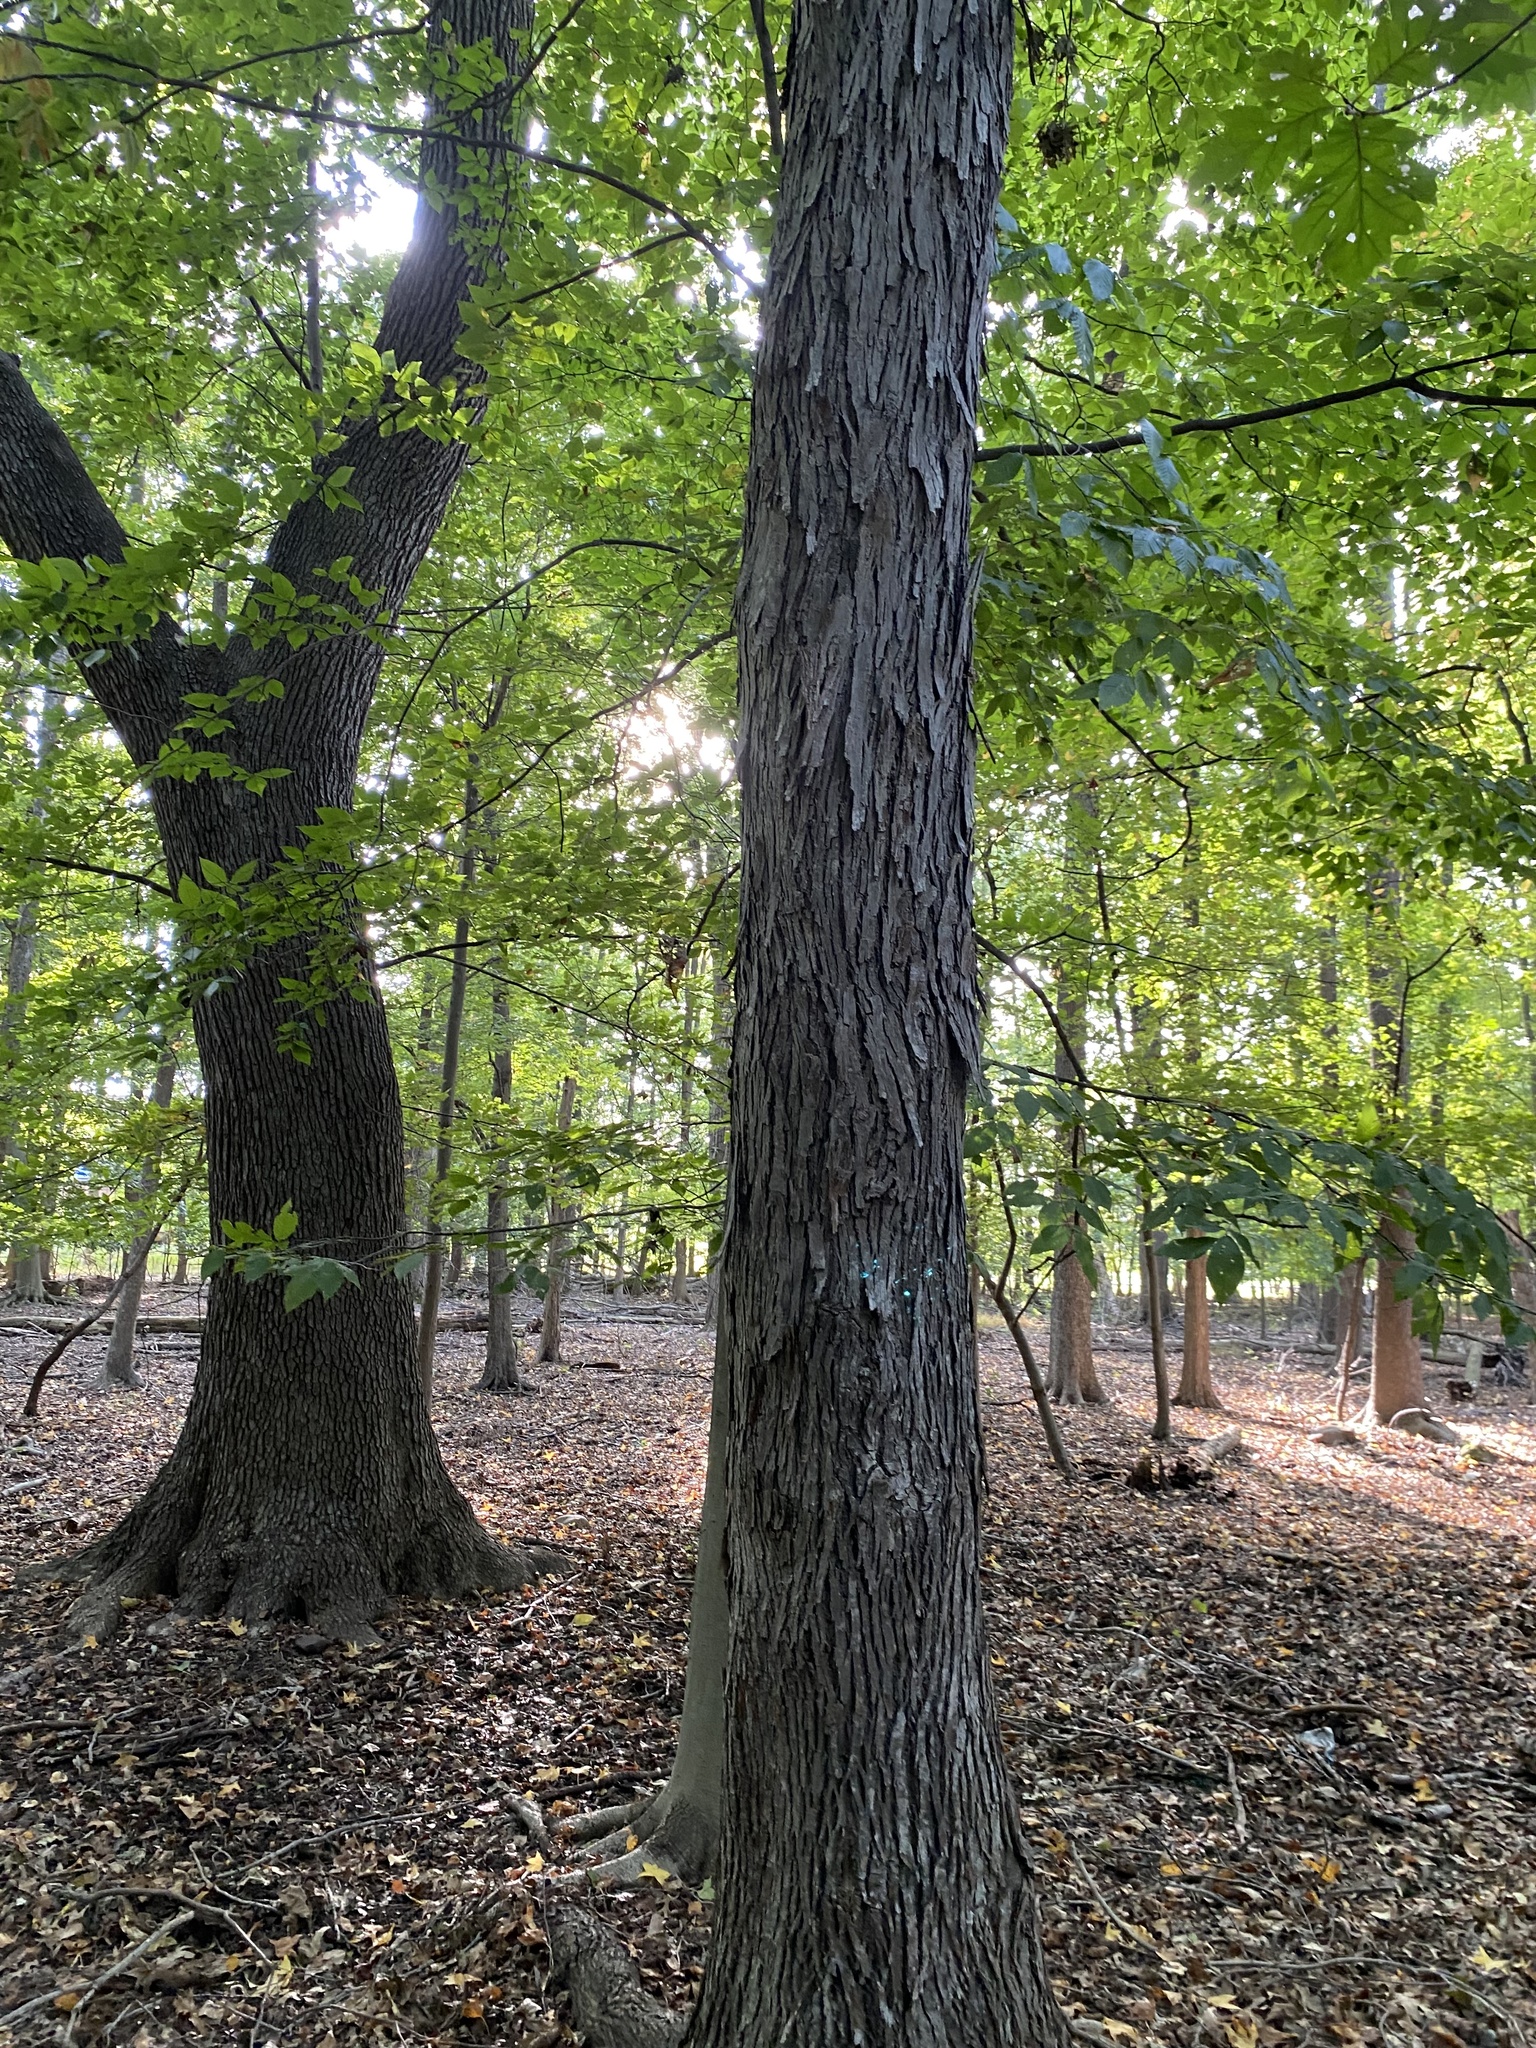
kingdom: Plantae
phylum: Tracheophyta
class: Magnoliopsida
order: Fagales
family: Juglandaceae
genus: Carya
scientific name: Carya ovata
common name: Shagbark hickory
